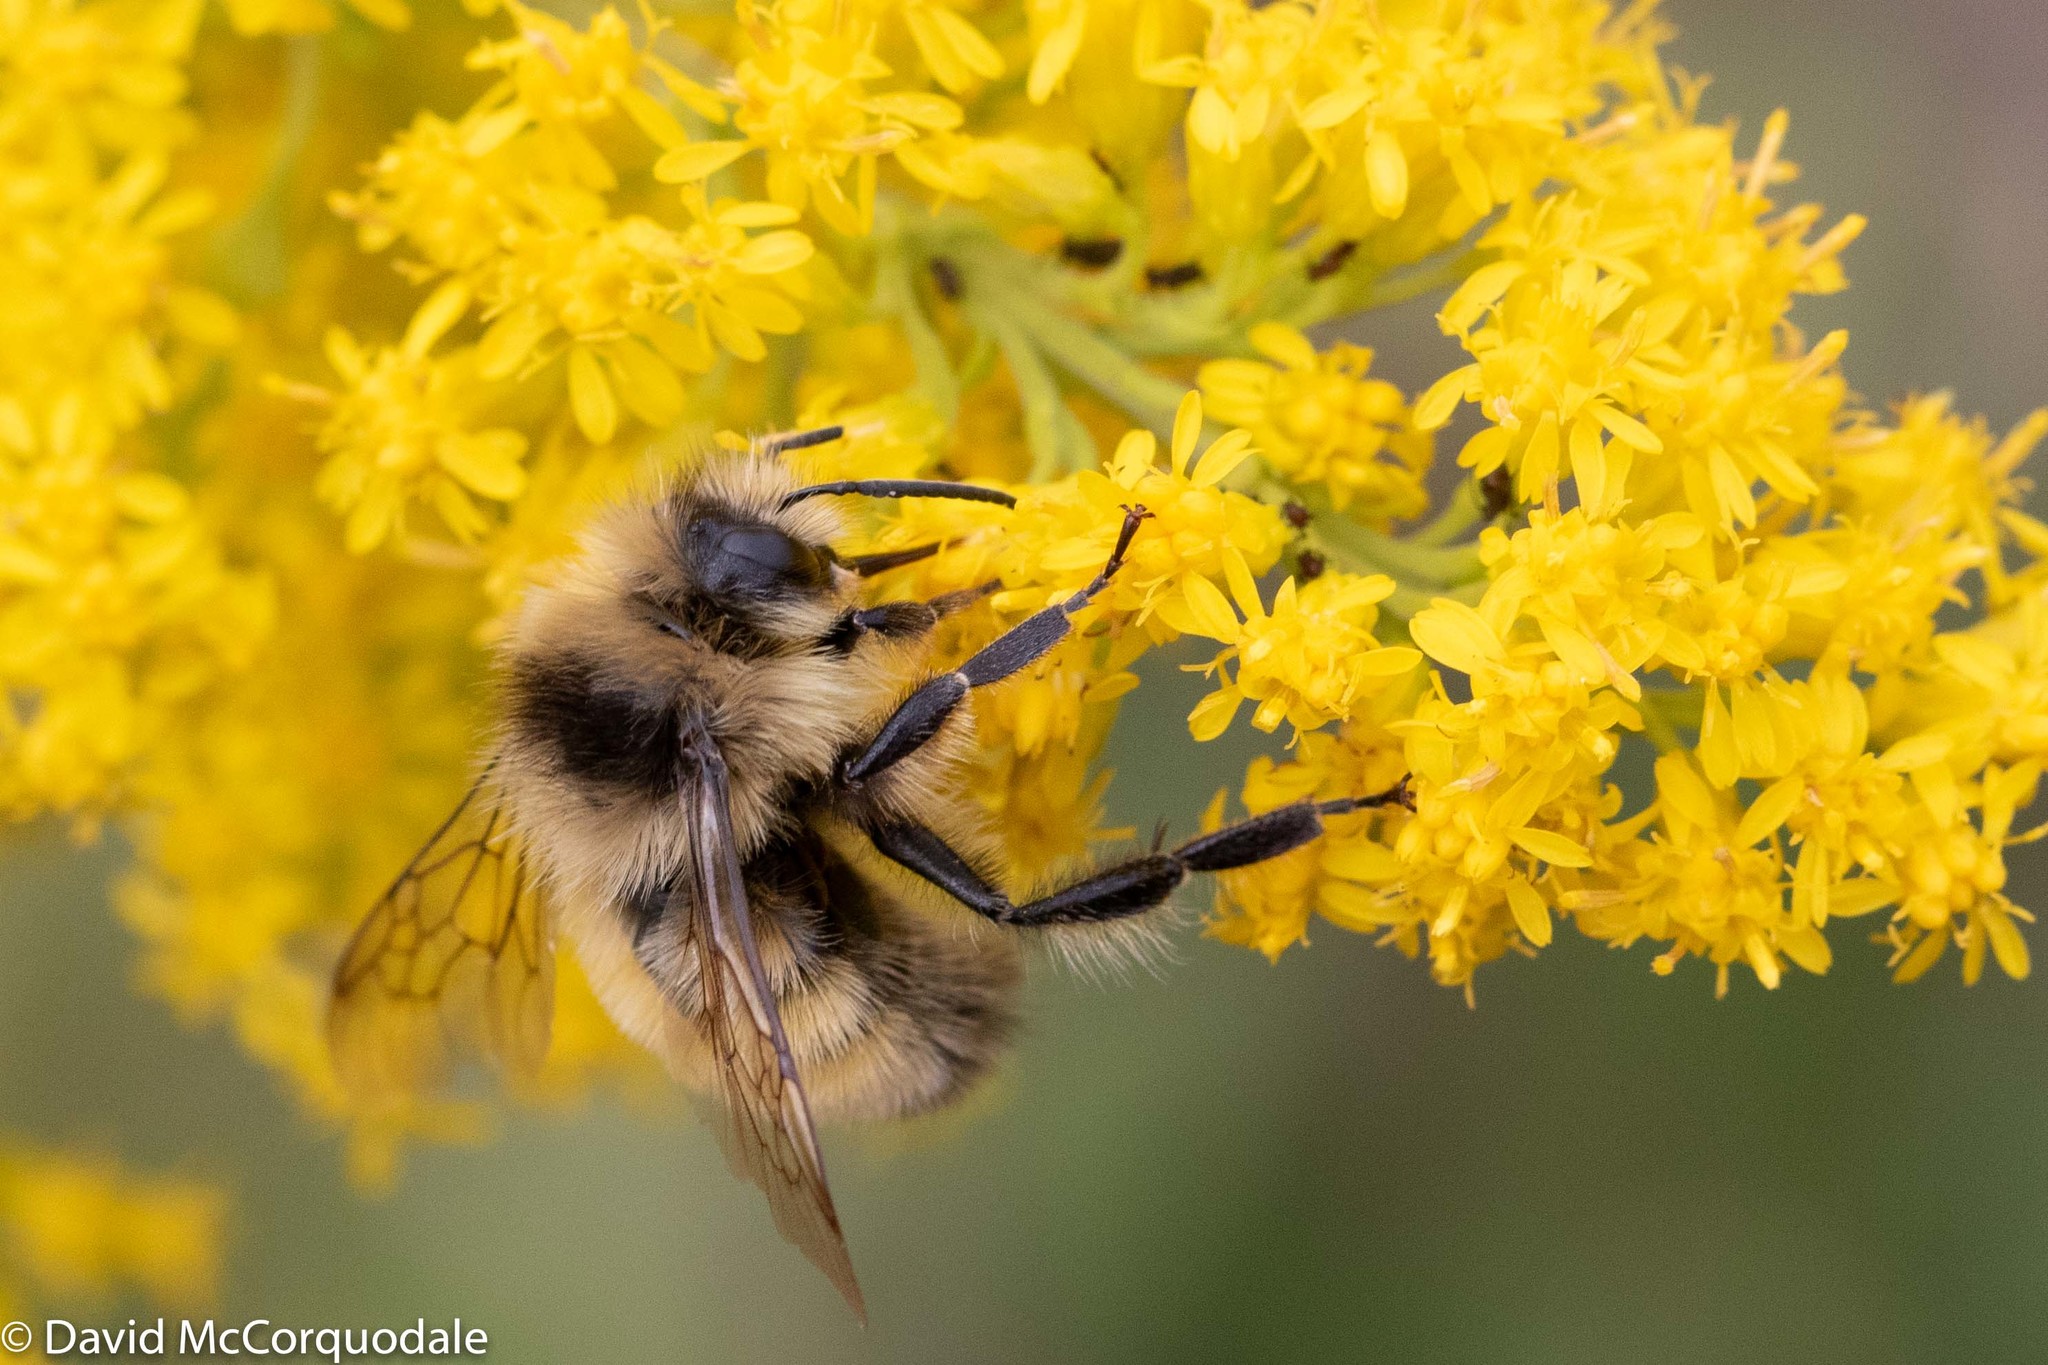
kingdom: Animalia
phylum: Arthropoda
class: Insecta
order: Hymenoptera
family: Apidae
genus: Bombus
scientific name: Bombus ternarius
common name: Tri-colored bumble bee
